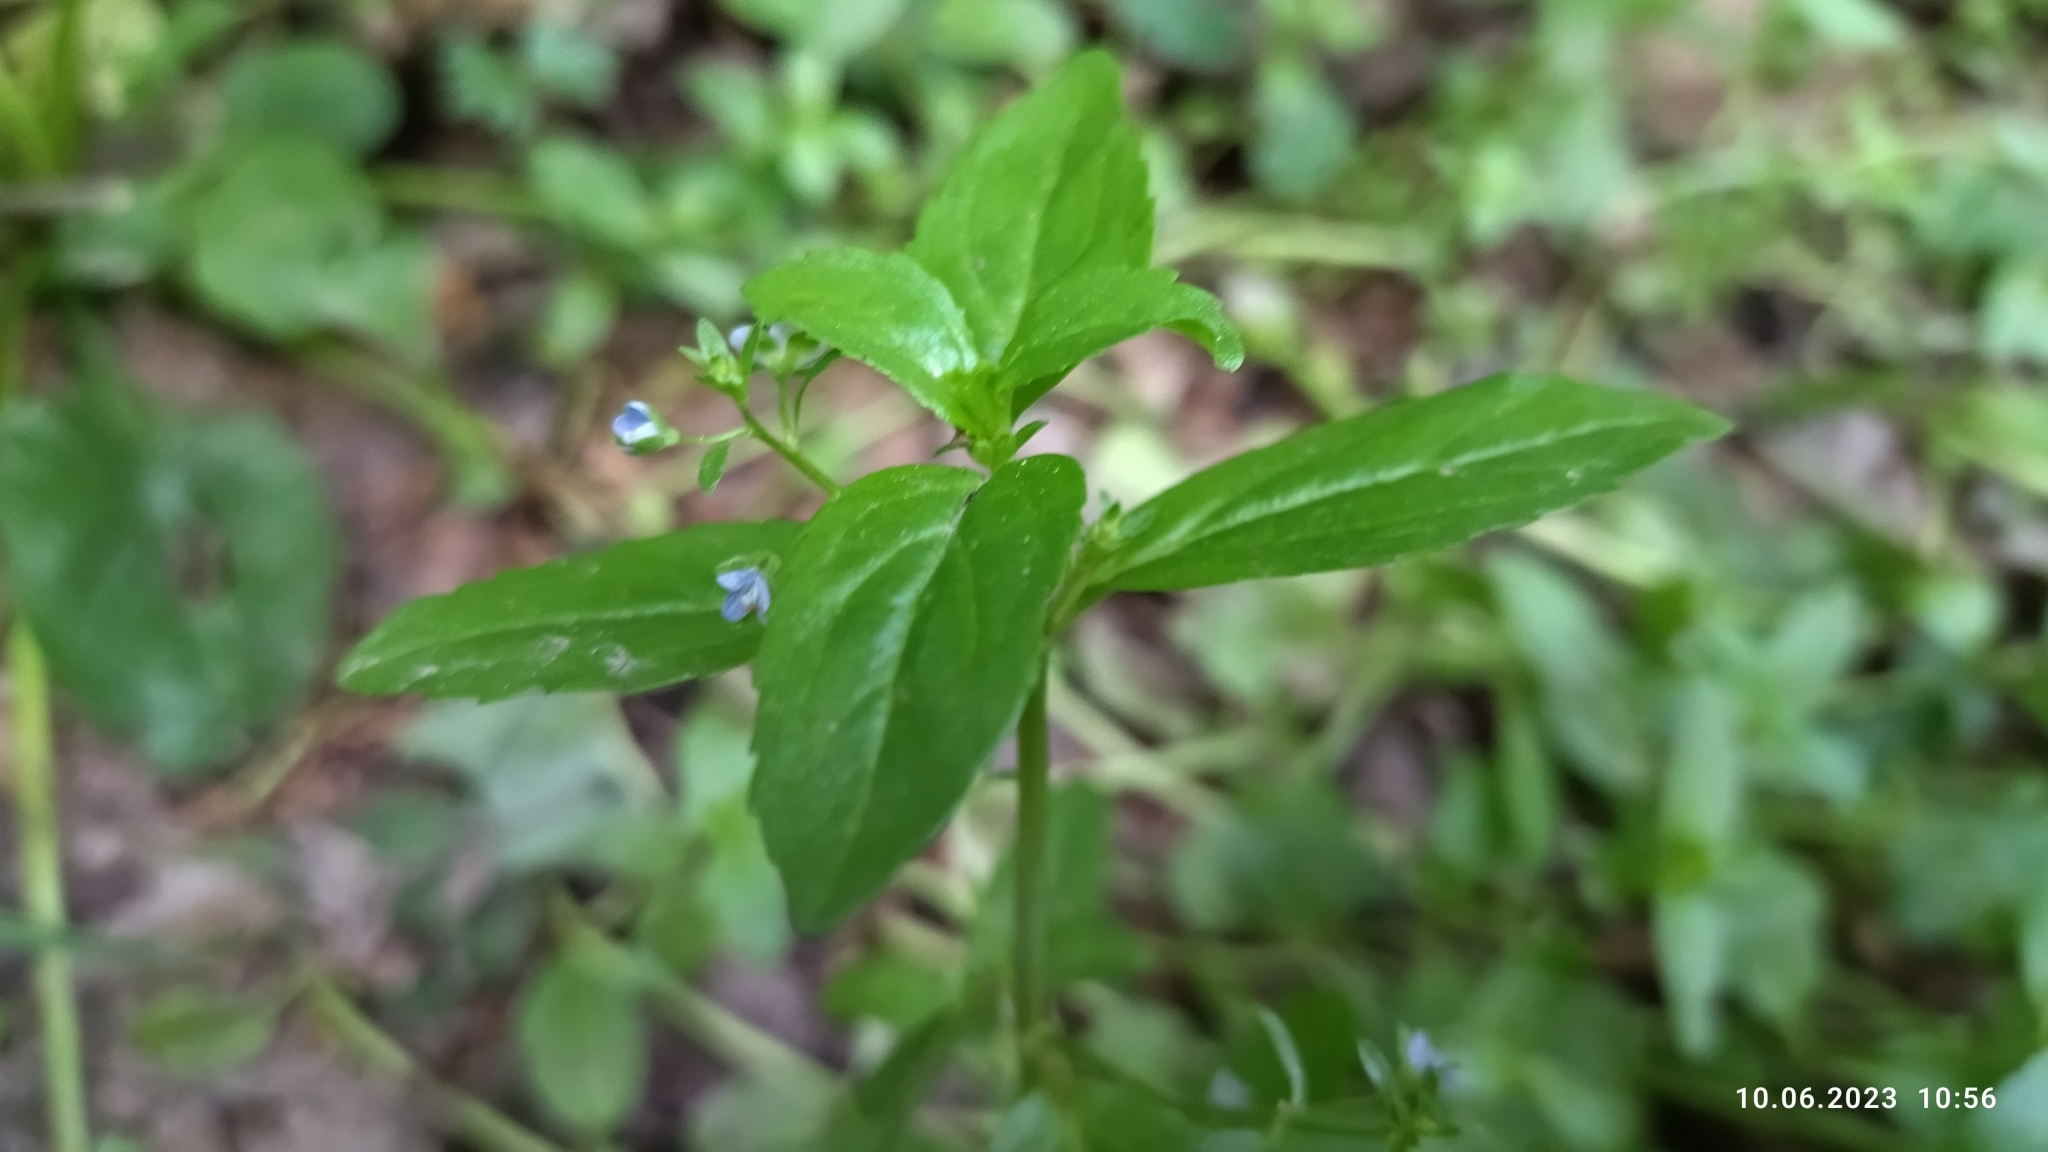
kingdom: Plantae
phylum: Tracheophyta
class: Magnoliopsida
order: Lamiales
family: Plantaginaceae
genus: Veronica
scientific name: Veronica beccabunga
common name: Brooklime
